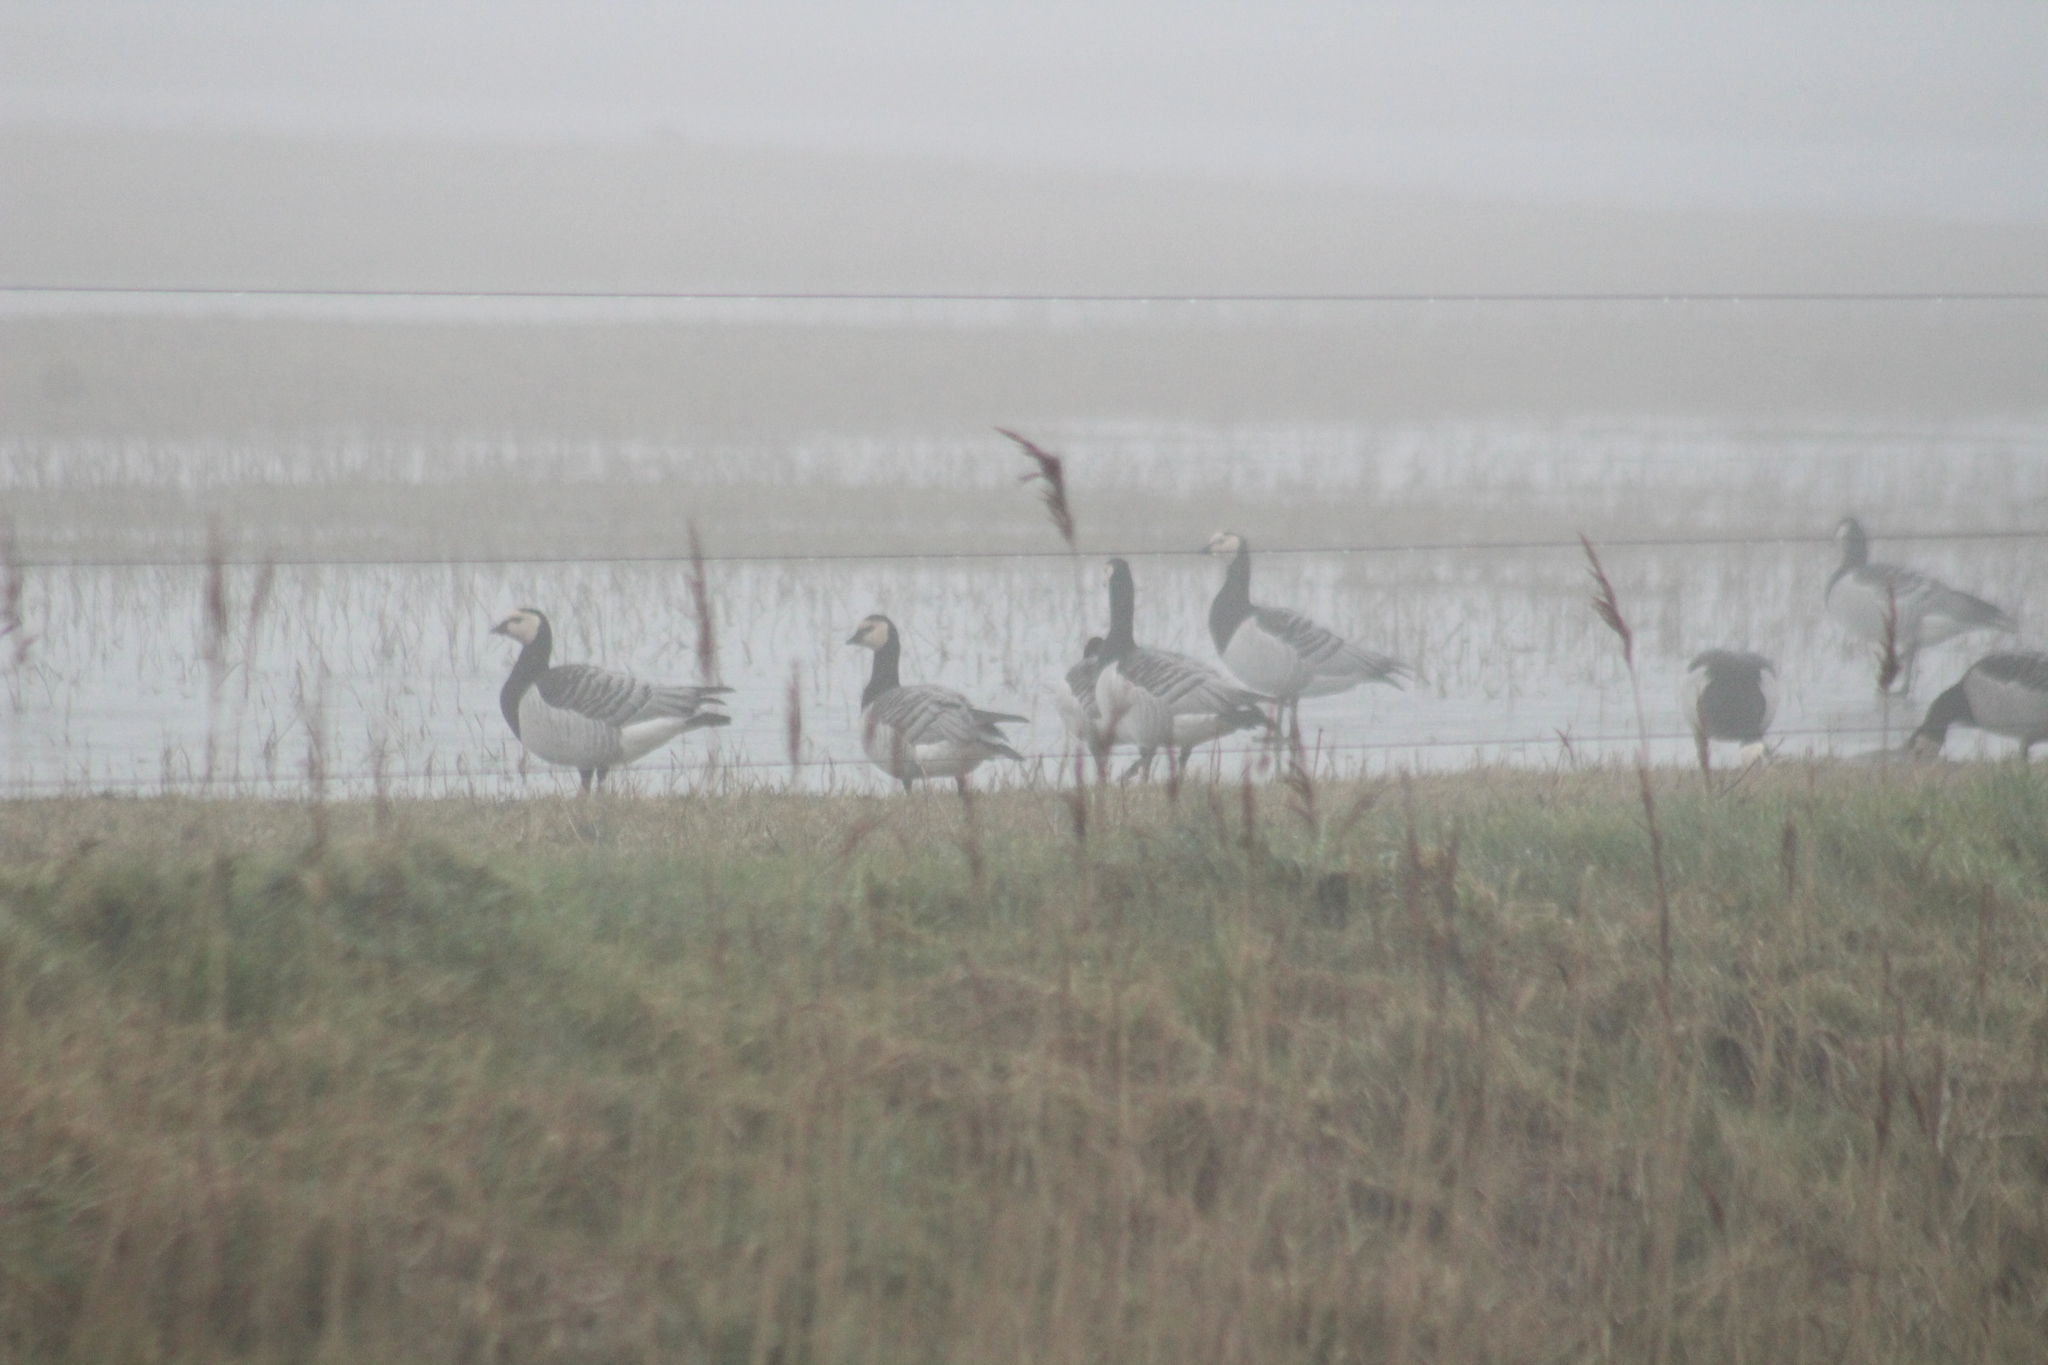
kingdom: Animalia
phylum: Chordata
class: Aves
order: Anseriformes
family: Anatidae
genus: Branta
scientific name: Branta leucopsis
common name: Barnacle goose
